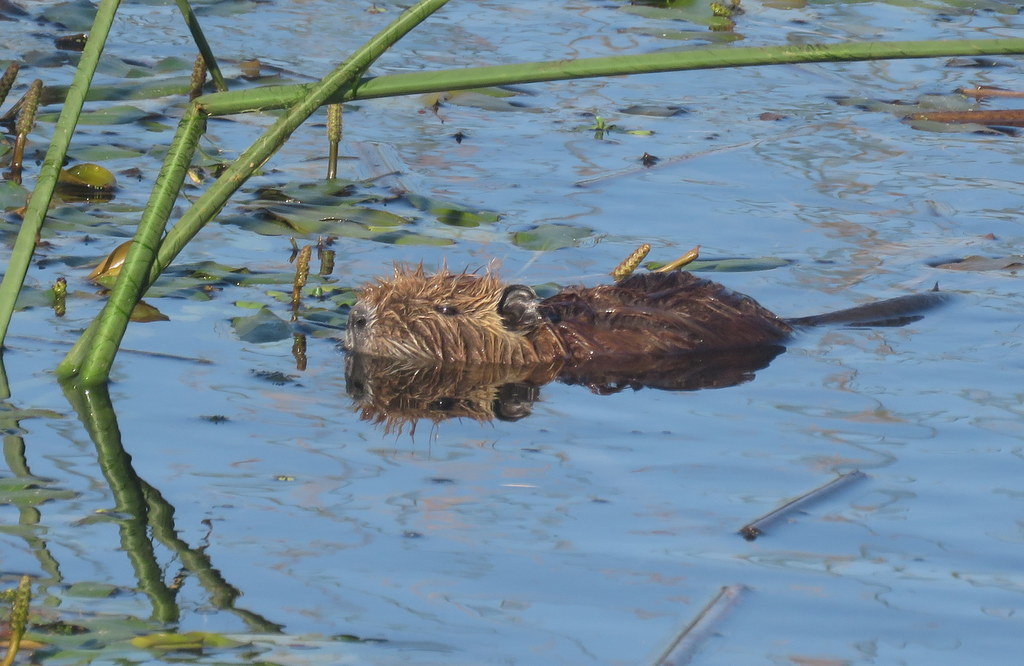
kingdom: Animalia
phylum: Chordata
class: Mammalia
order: Rodentia
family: Myocastoridae
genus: Myocastor
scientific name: Myocastor coypus
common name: Coypu
